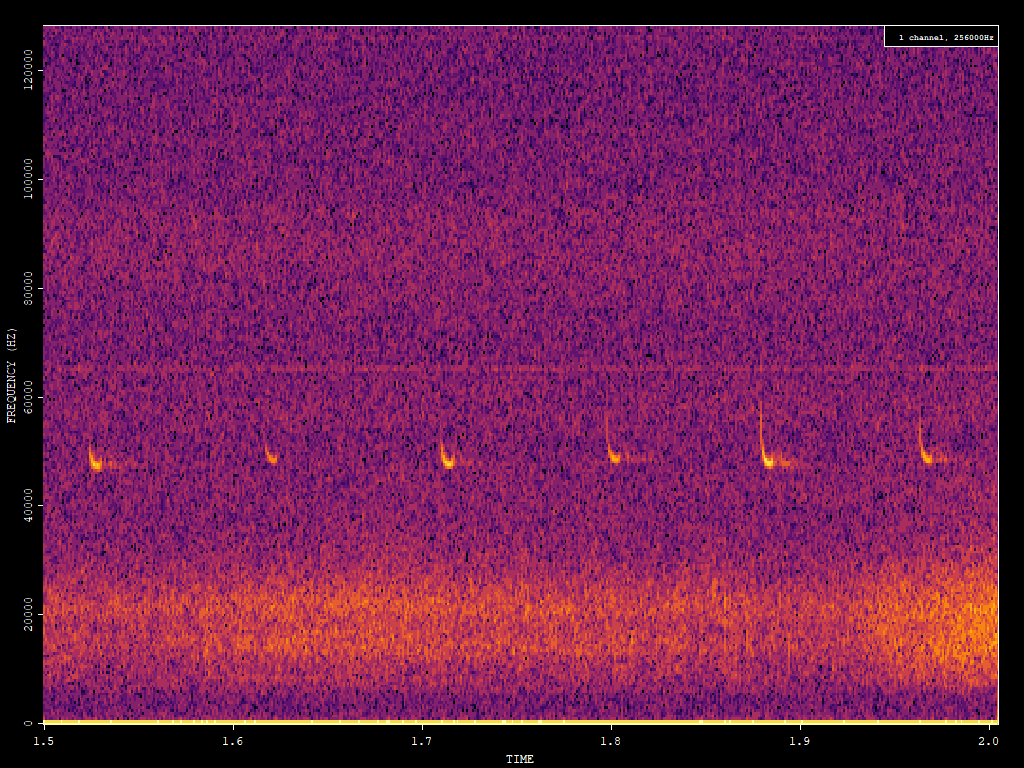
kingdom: Animalia
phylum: Chordata
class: Mammalia
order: Chiroptera
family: Vespertilionidae
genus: Pipistrellus
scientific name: Pipistrellus pipistrellus
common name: Common pipistrelle
